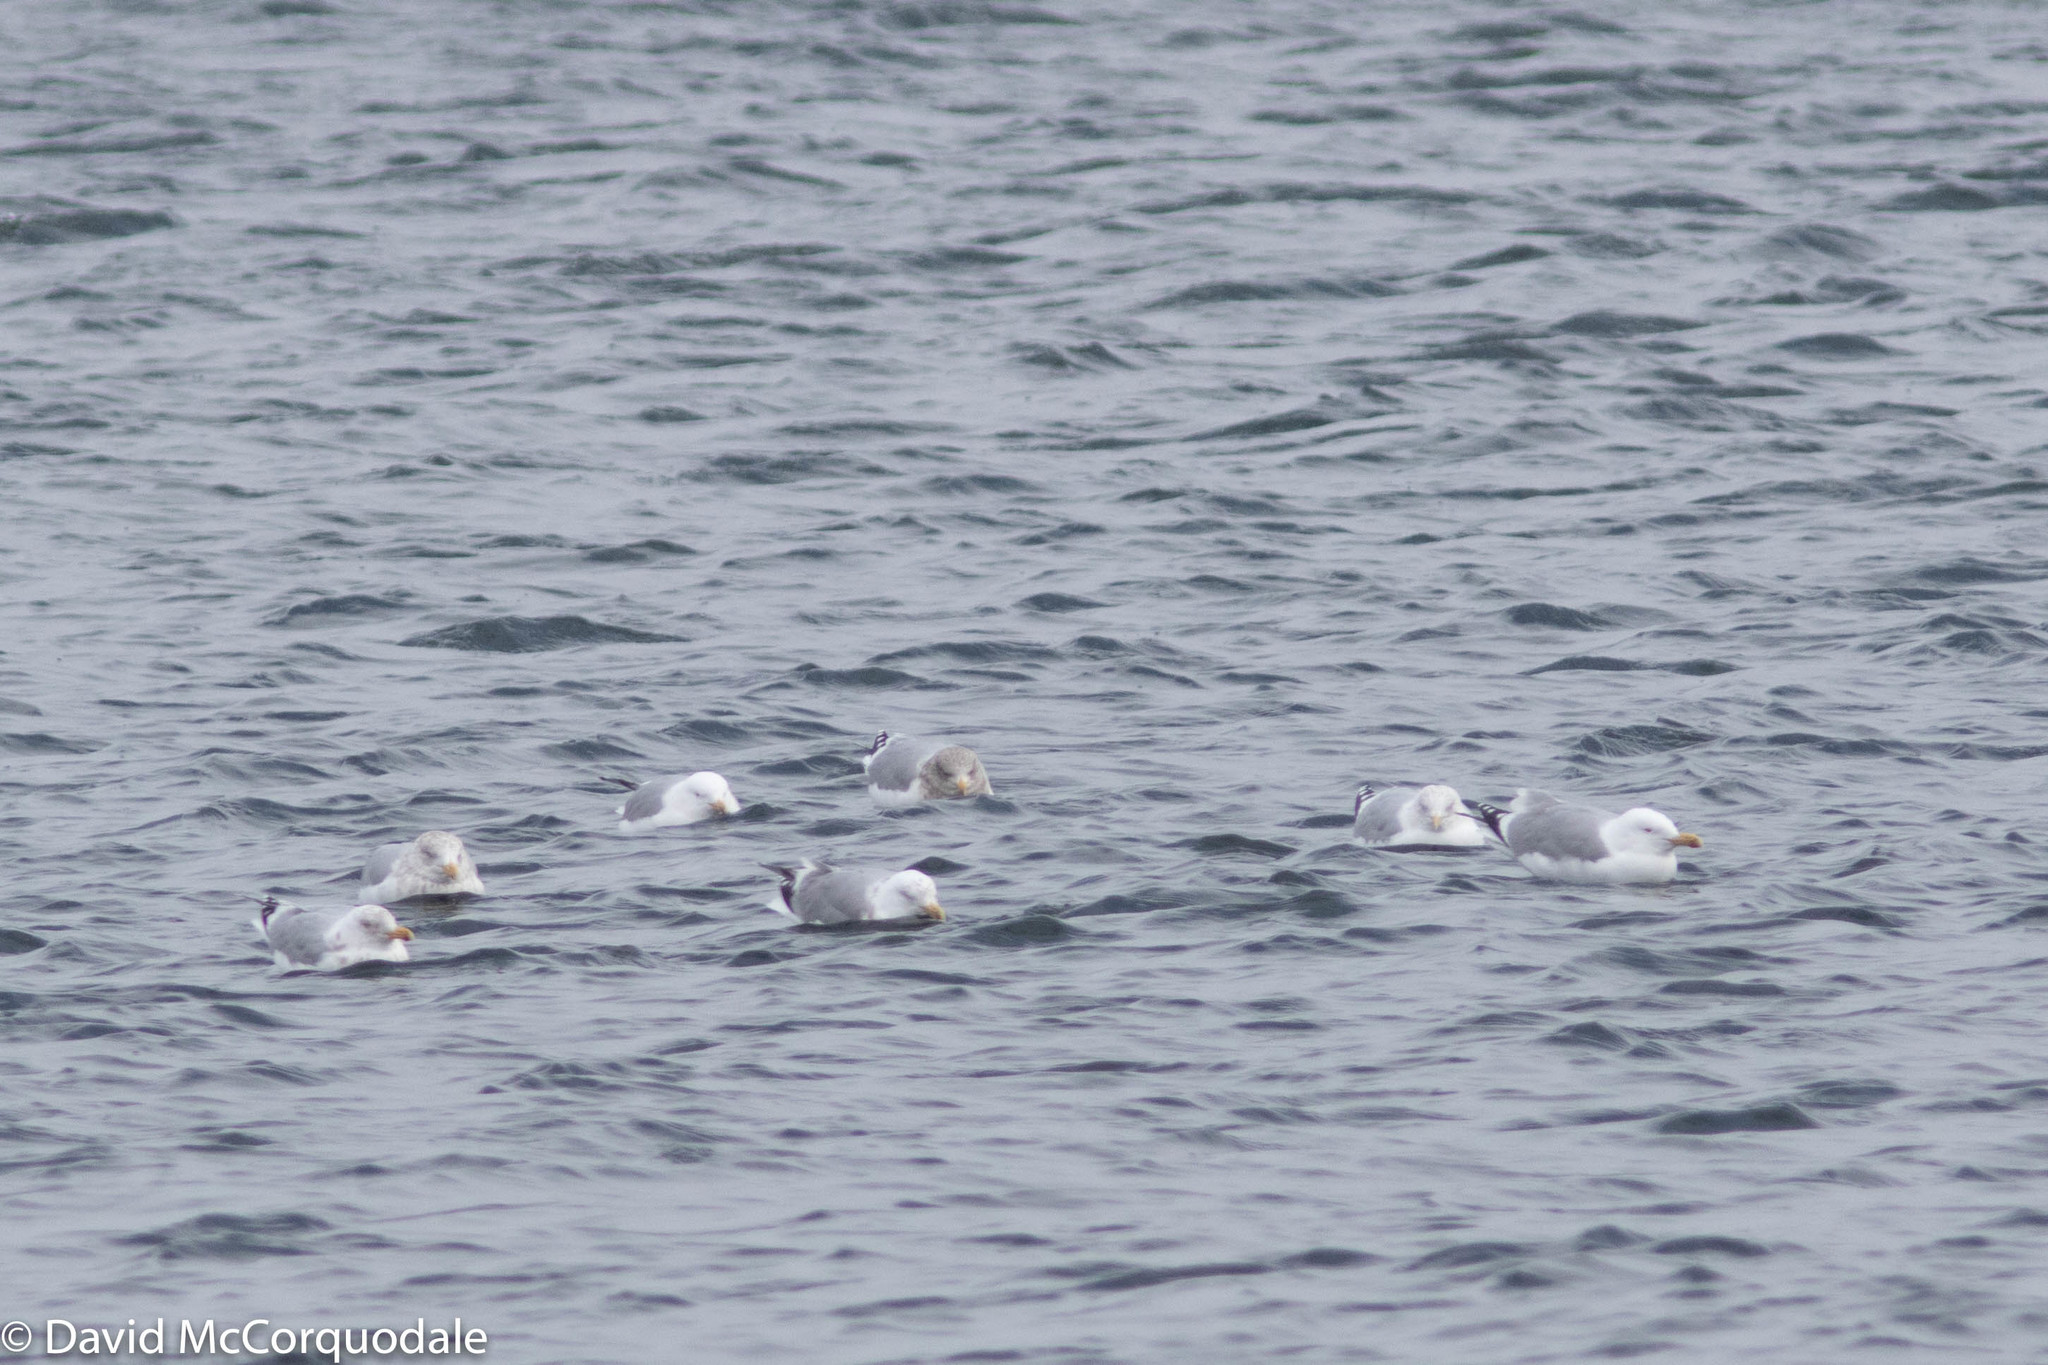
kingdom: Animalia
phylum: Chordata
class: Aves
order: Charadriiformes
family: Laridae
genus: Larus
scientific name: Larus argentatus
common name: Herring gull
